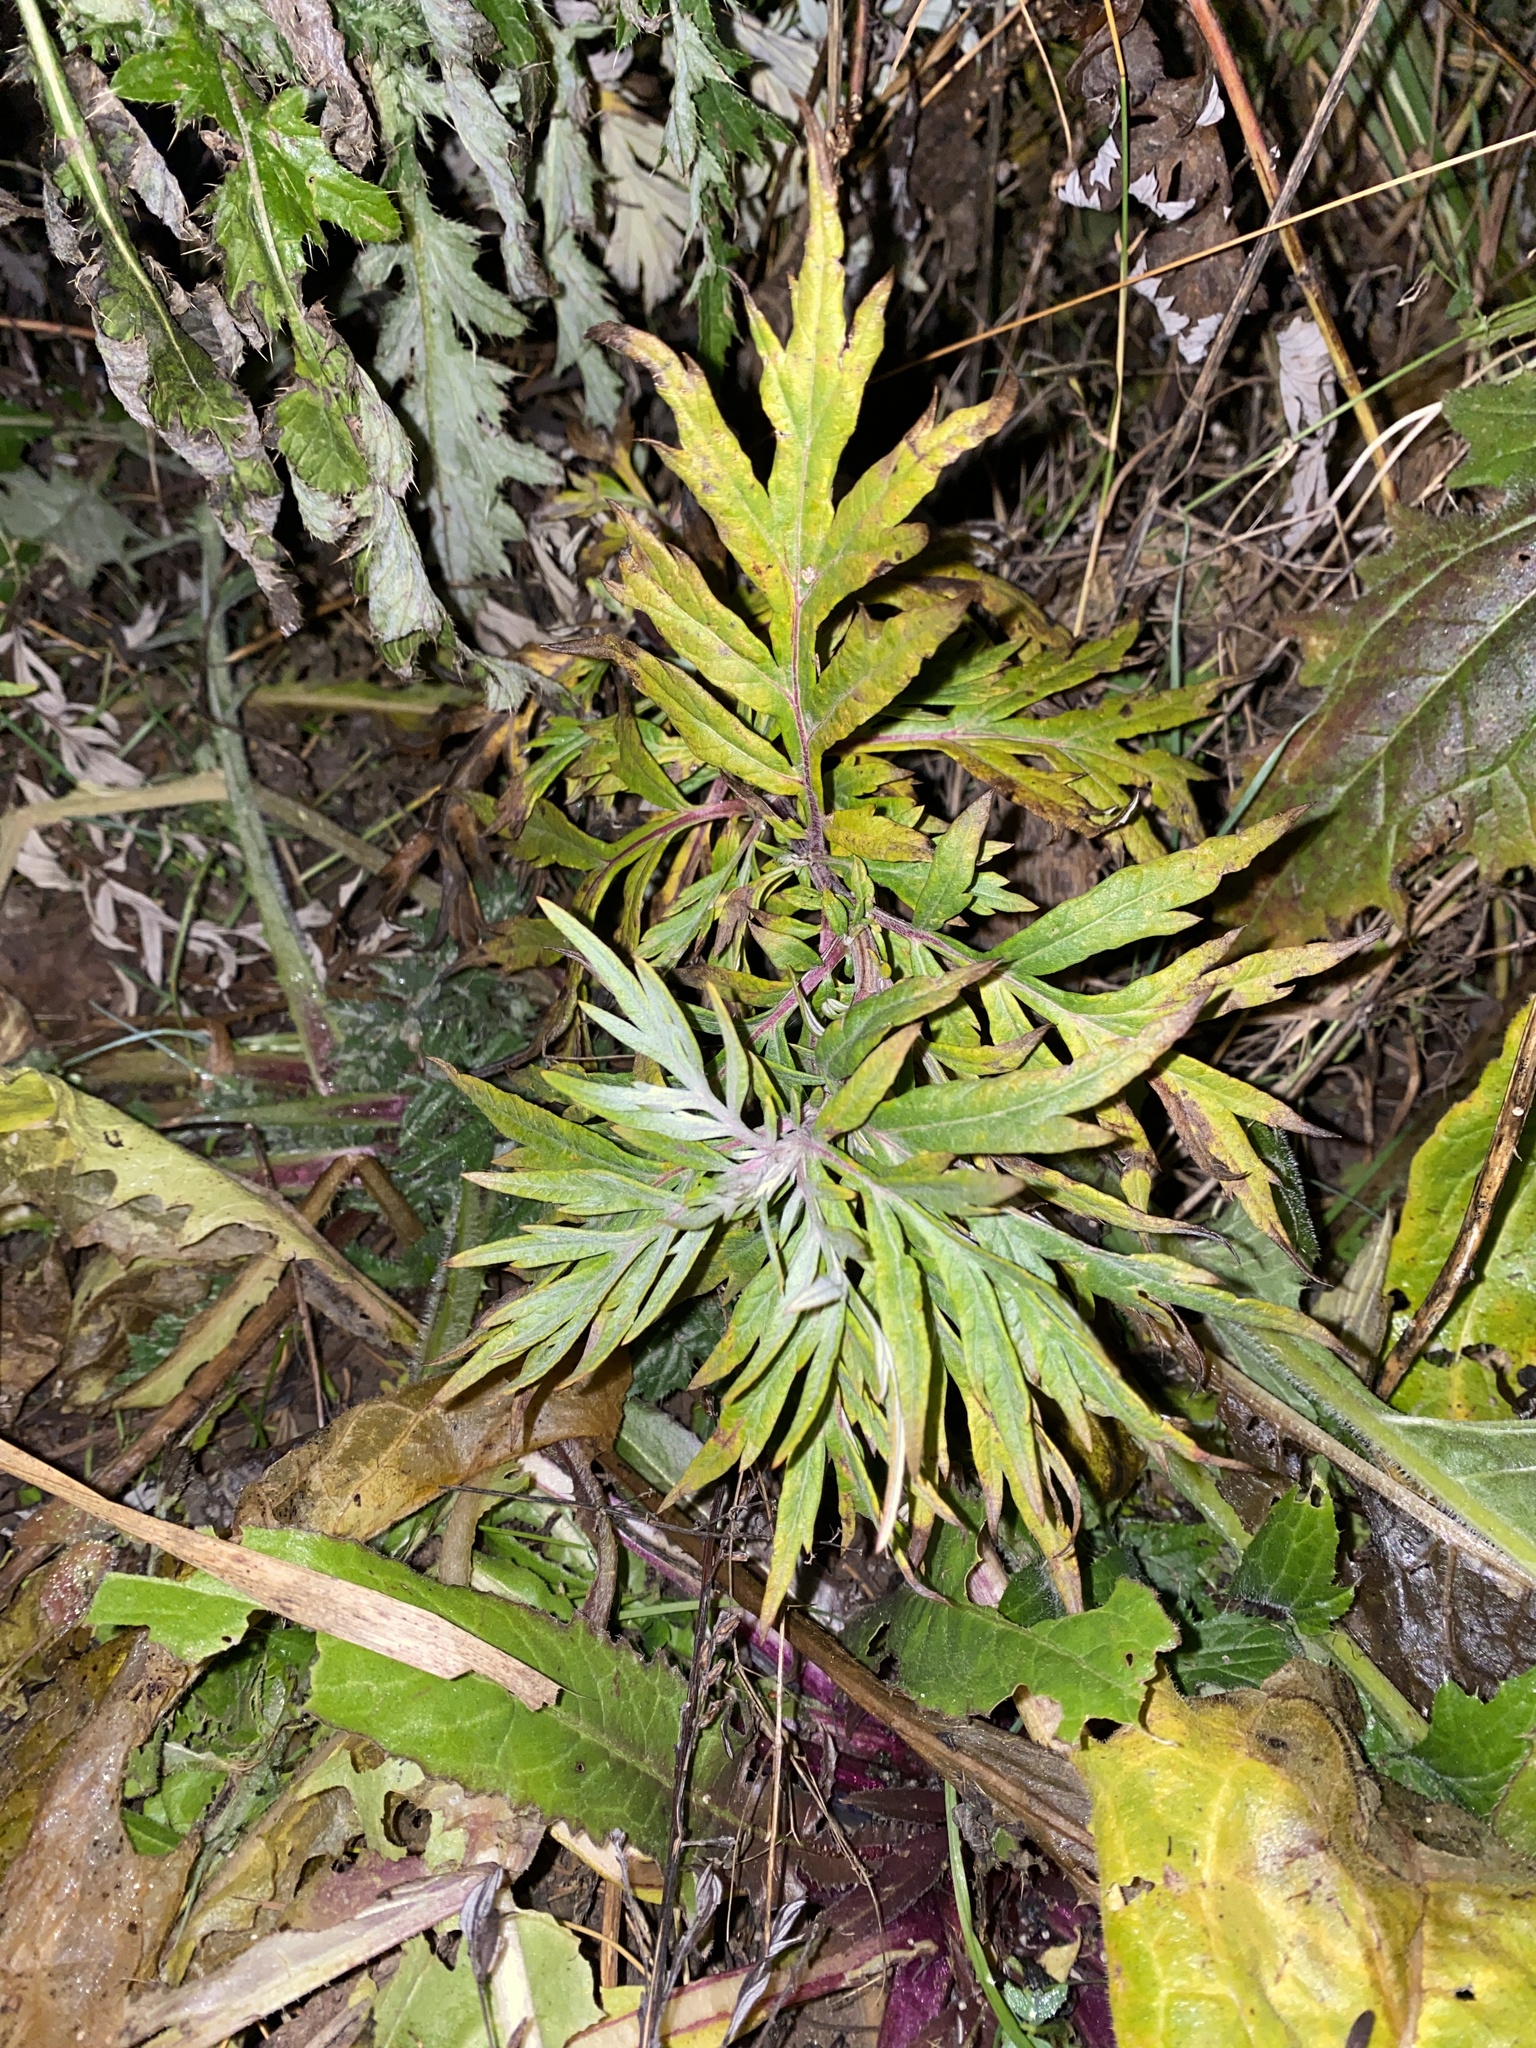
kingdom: Plantae
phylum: Tracheophyta
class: Magnoliopsida
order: Asterales
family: Asteraceae
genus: Artemisia
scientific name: Artemisia vulgaris
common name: Mugwort
